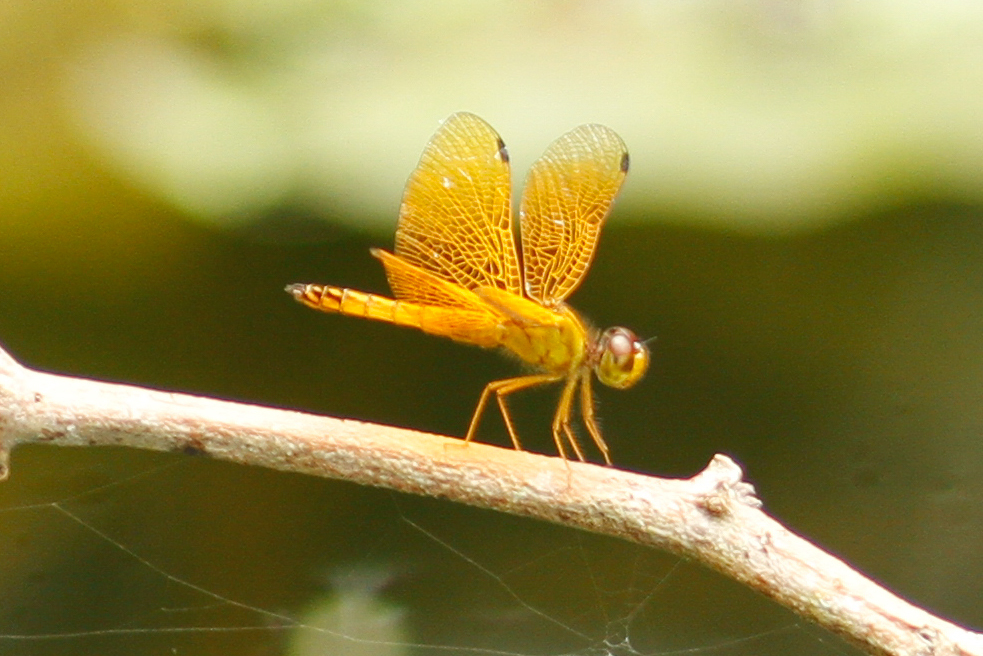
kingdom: Animalia
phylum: Arthropoda
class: Insecta
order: Odonata
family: Libellulidae
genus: Perithemis
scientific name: Perithemis parzefalli
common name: Clear-tipped amberwing
